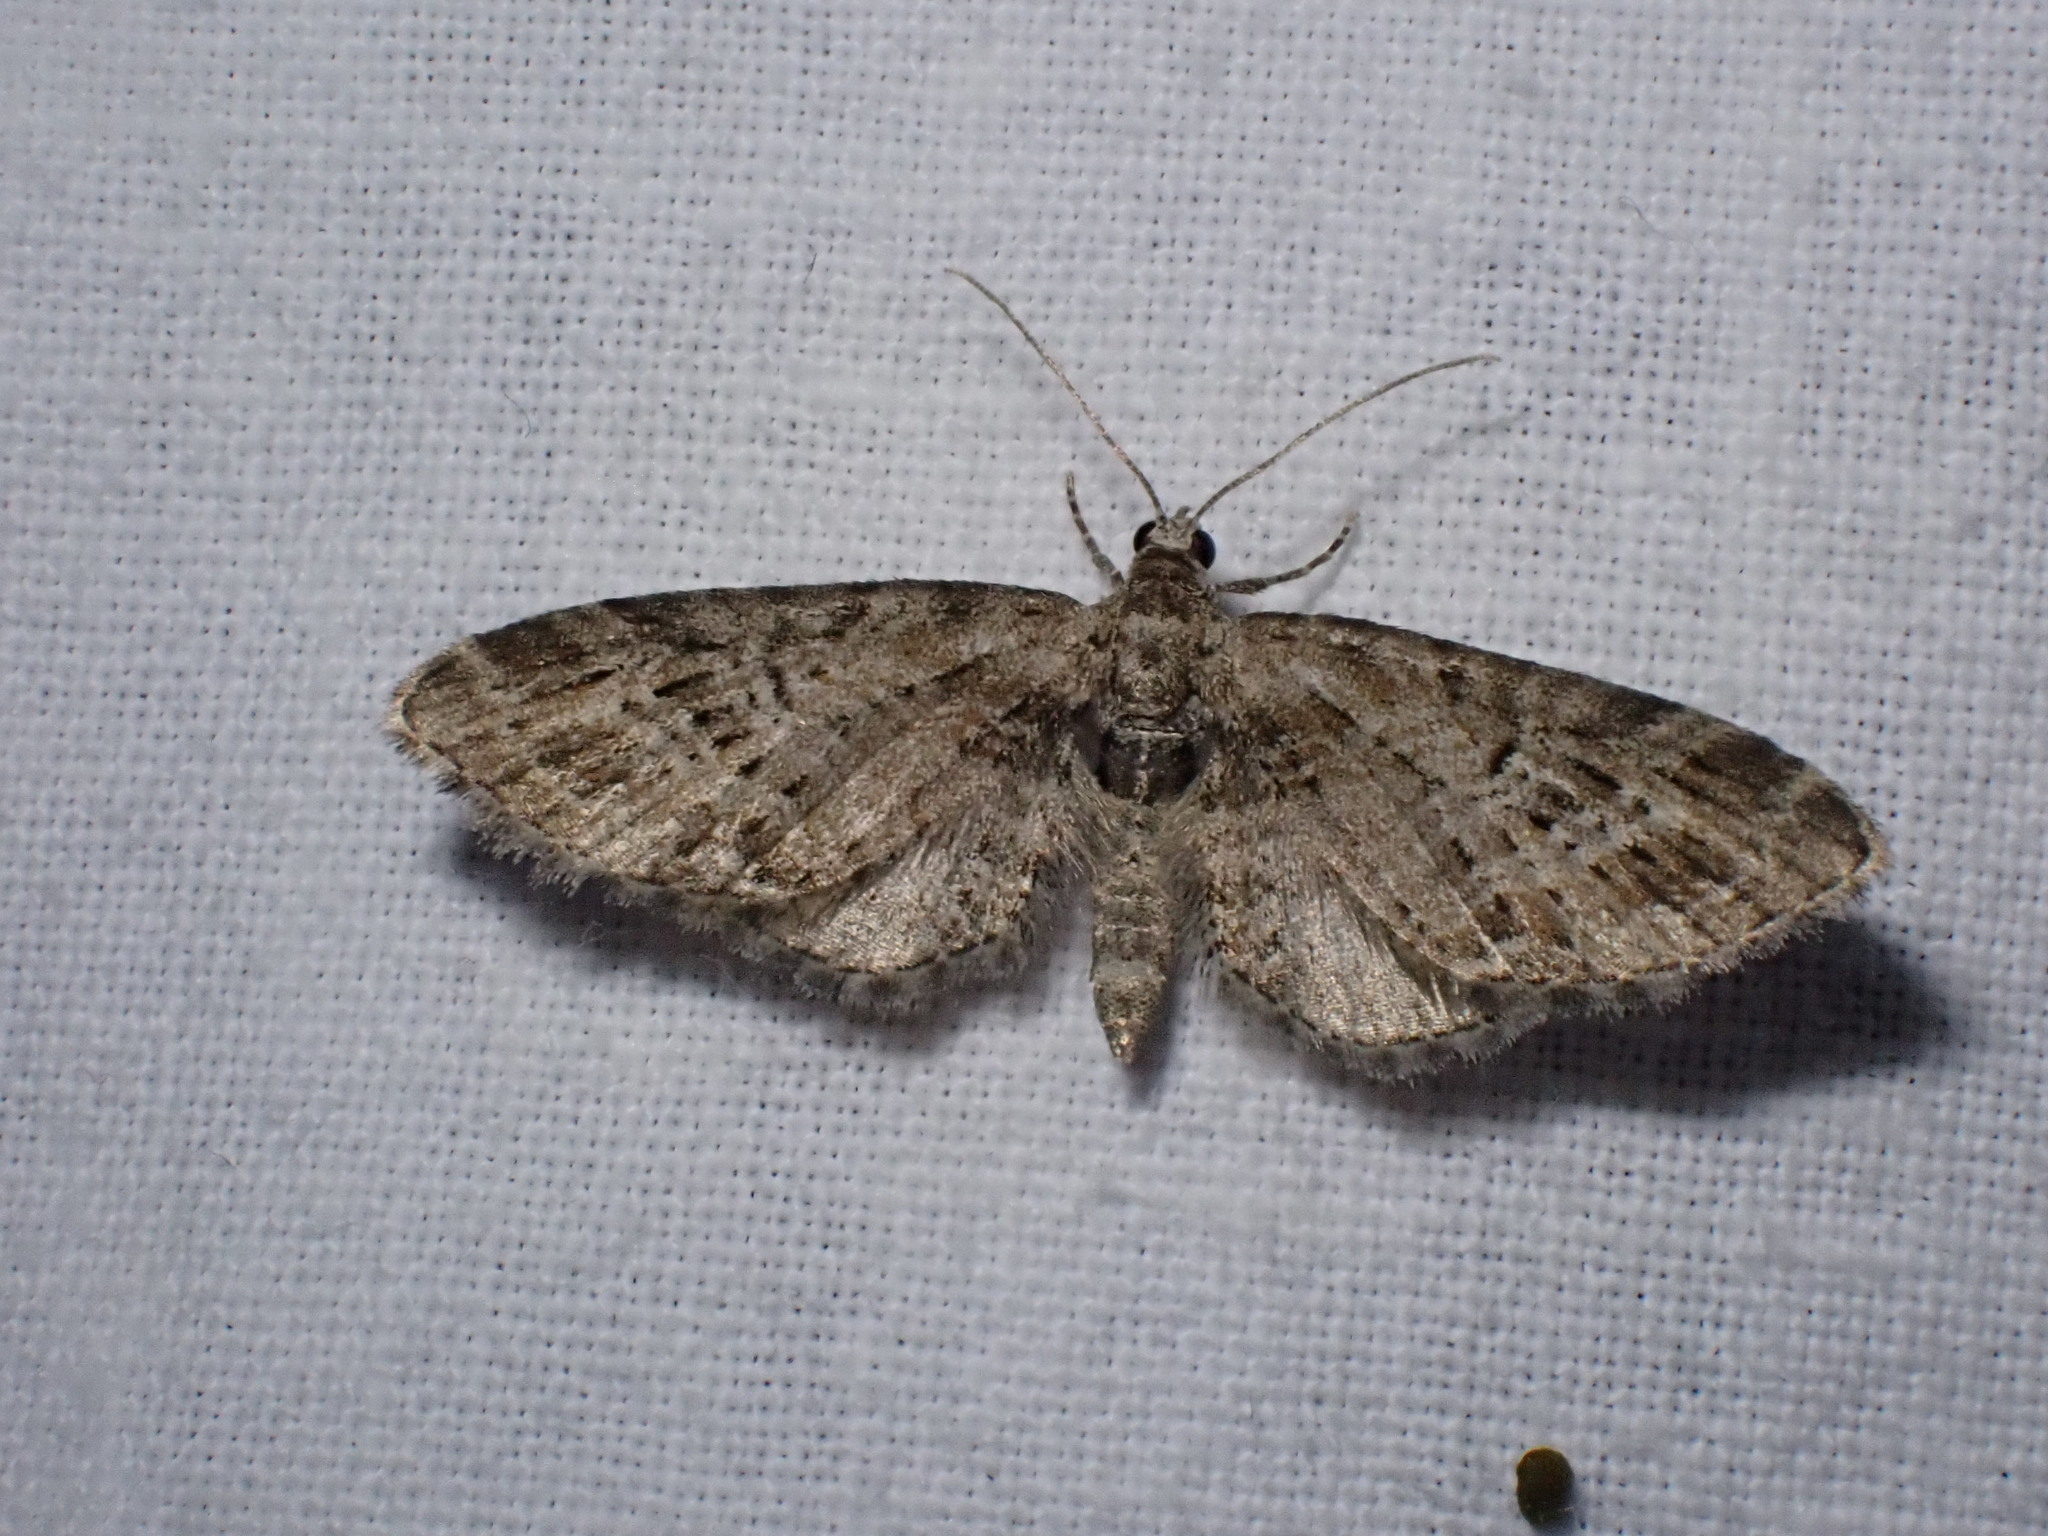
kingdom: Animalia
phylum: Arthropoda
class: Insecta
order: Lepidoptera
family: Geometridae
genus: Eupithecia
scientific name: Eupithecia exiguata
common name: Mottled pug
